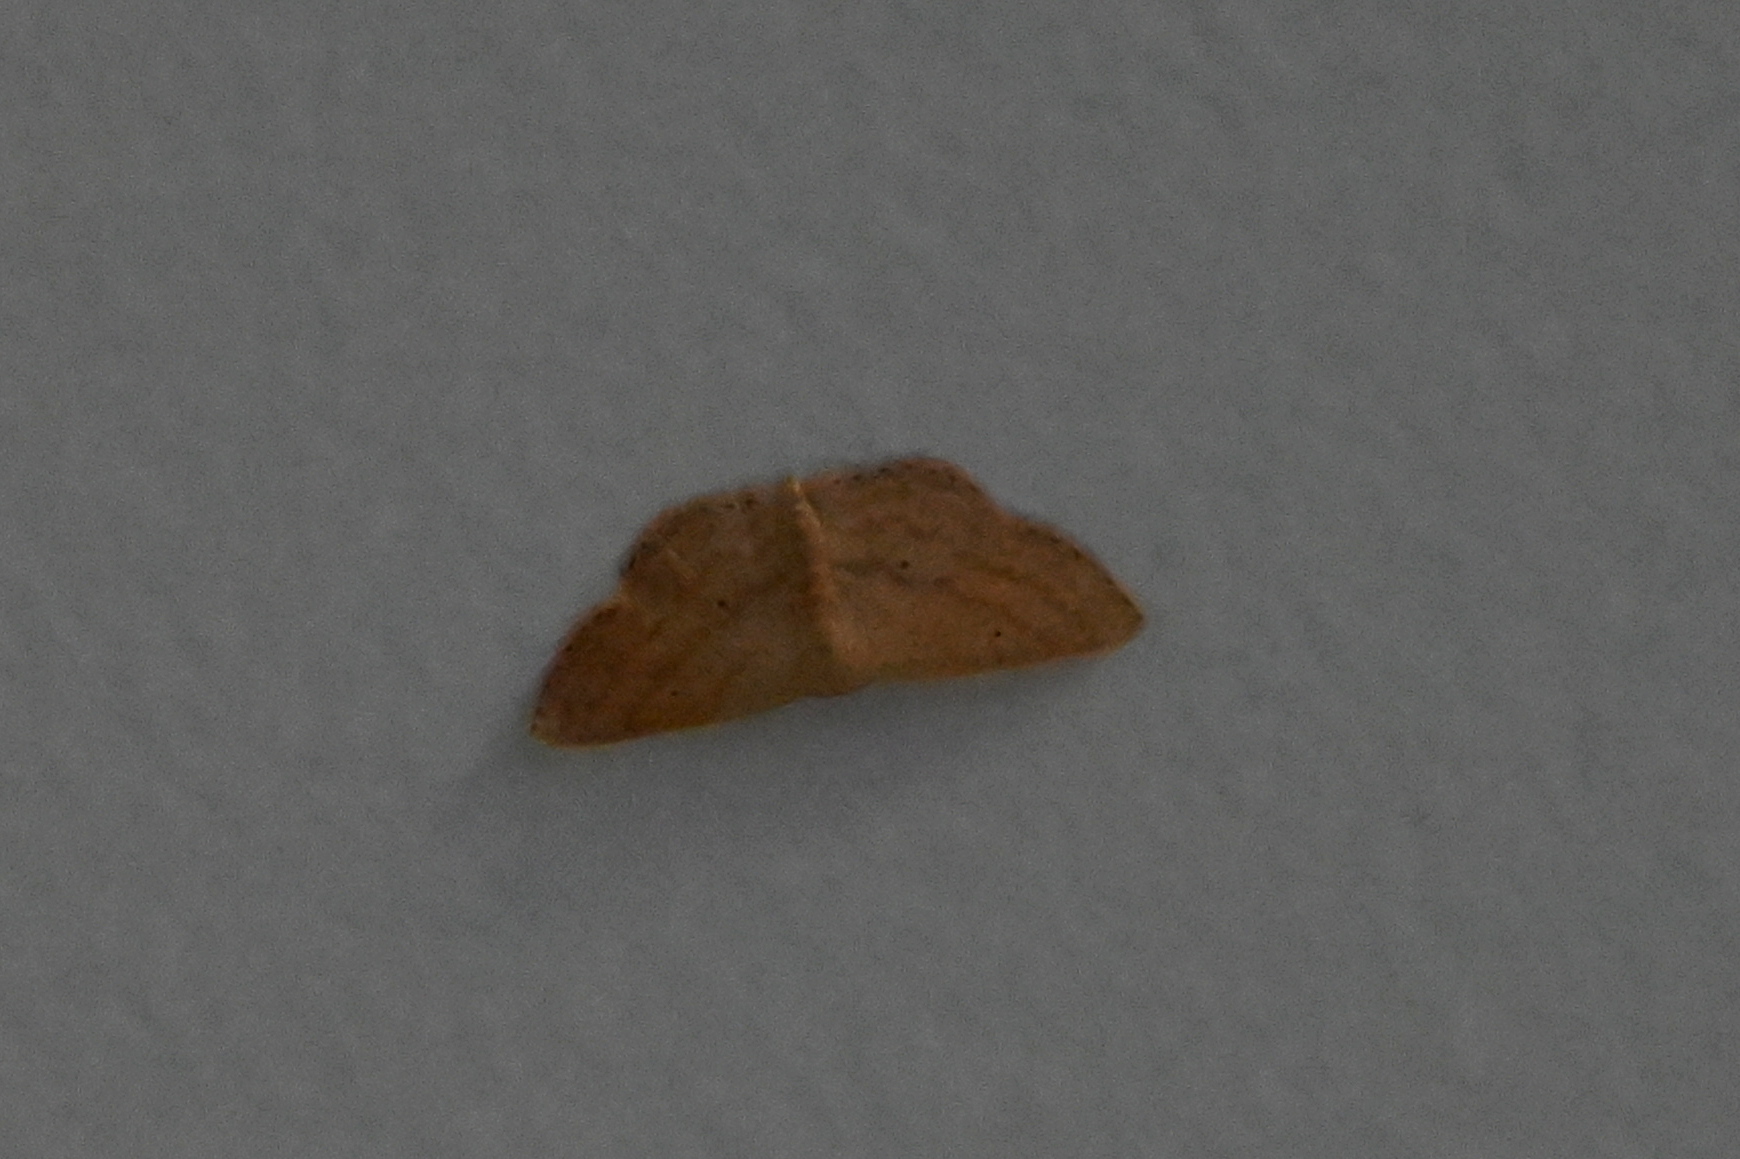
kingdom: Animalia
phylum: Arthropoda
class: Insecta
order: Lepidoptera
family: Geometridae
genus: Scopula
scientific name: Scopula minorata
